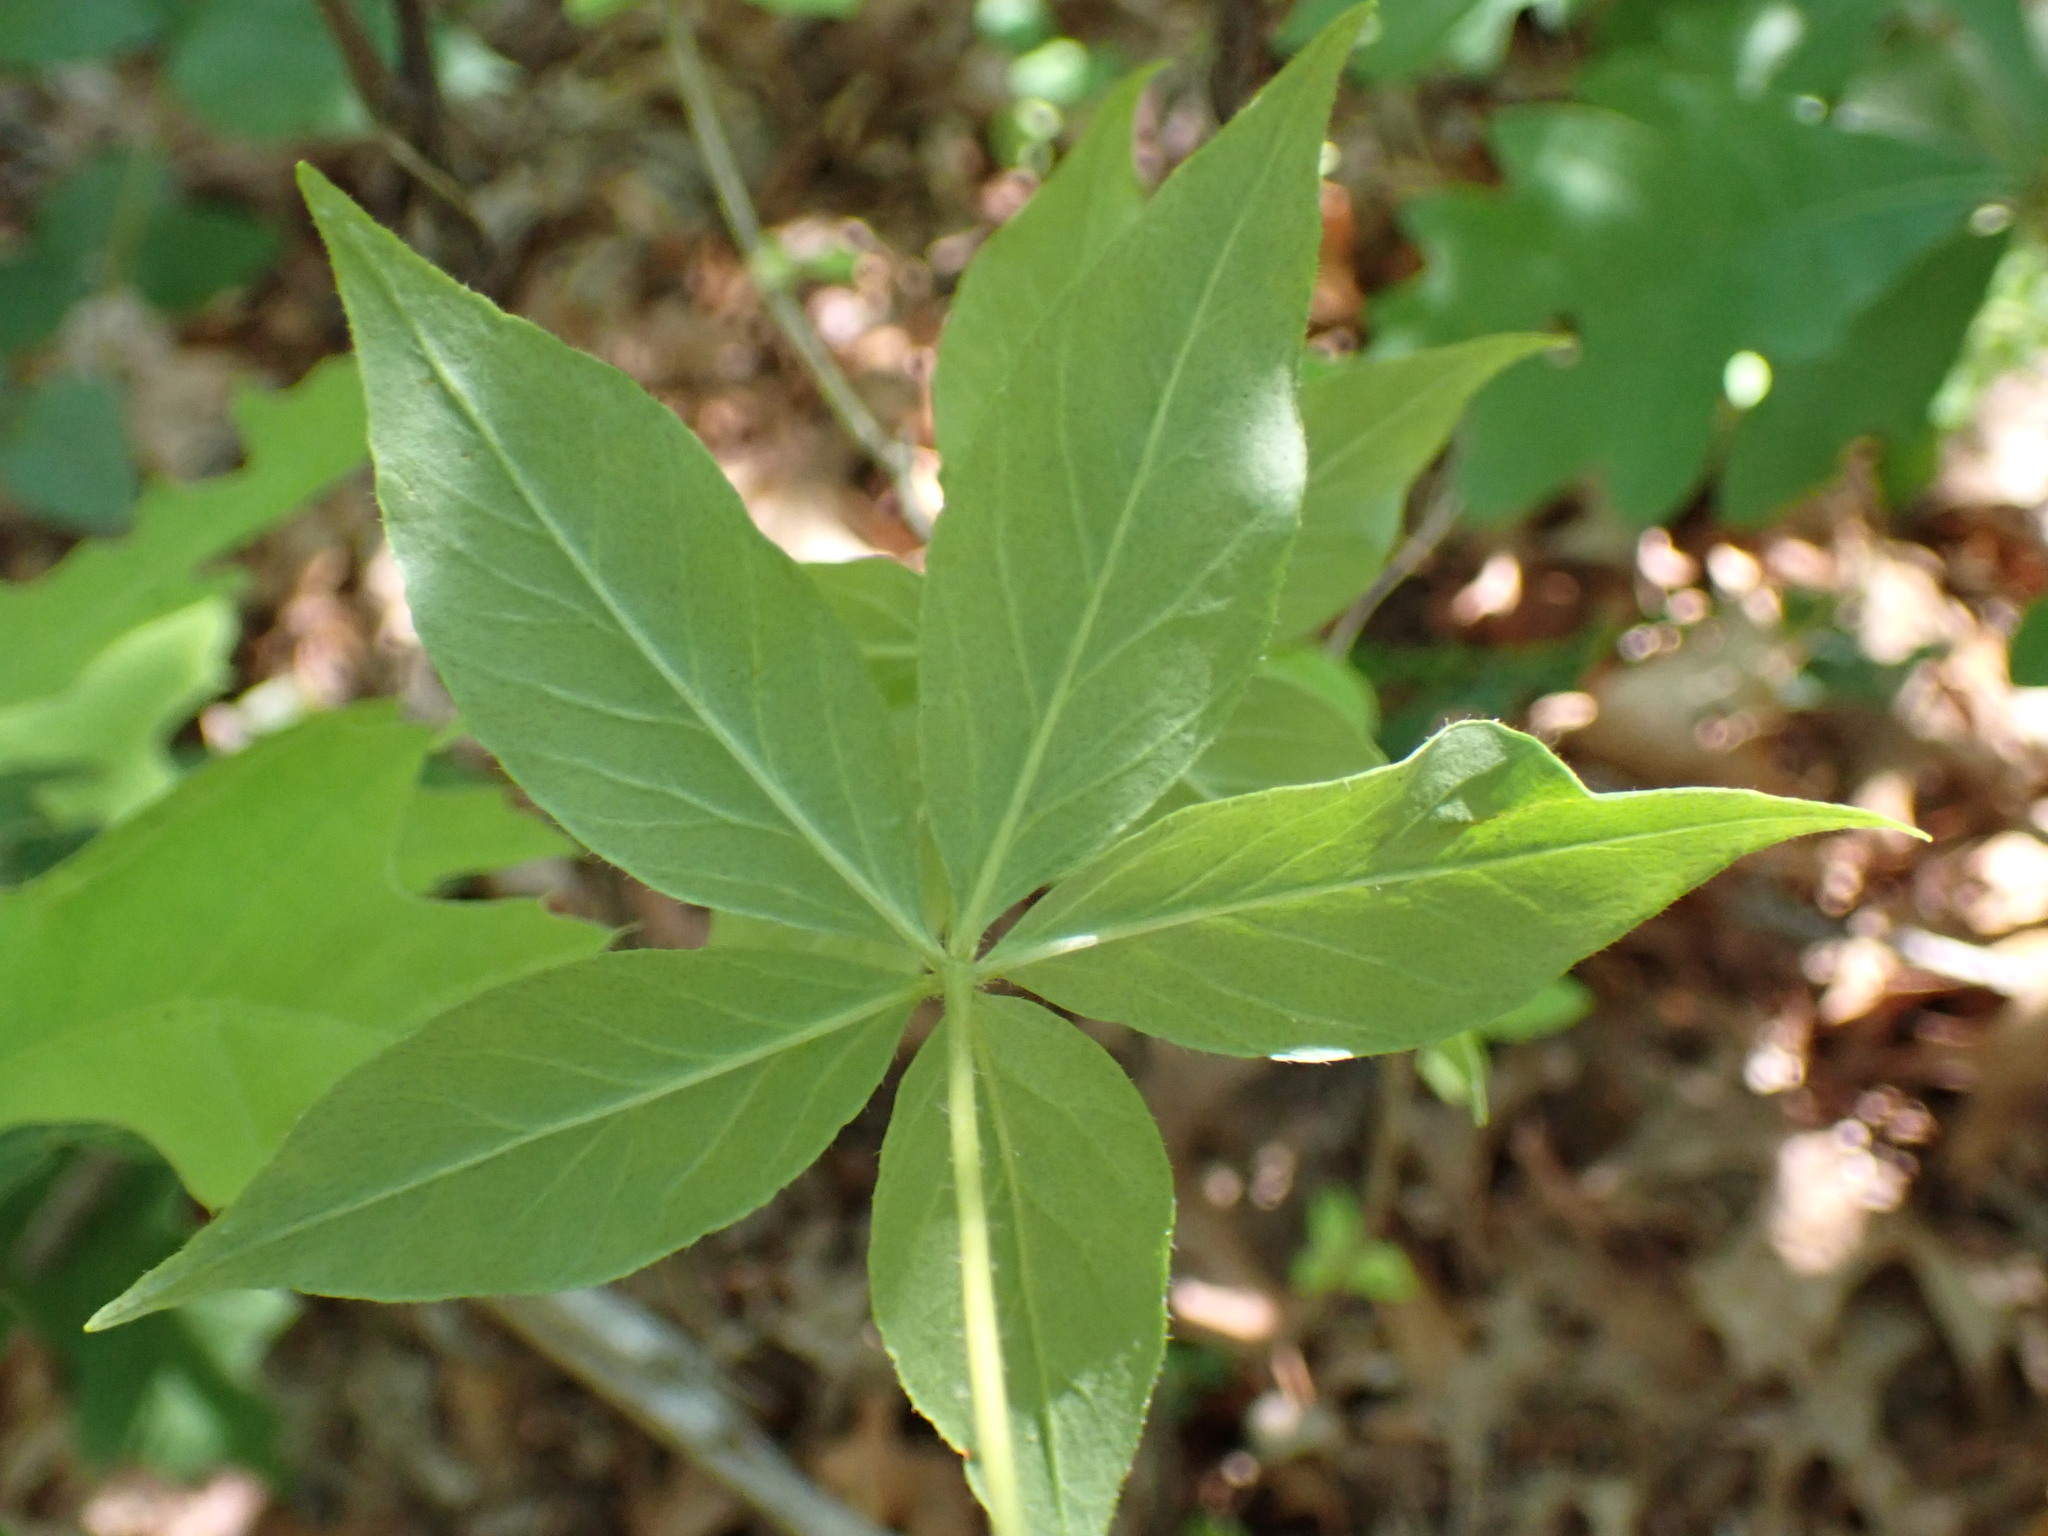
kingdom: Plantae
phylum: Tracheophyta
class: Magnoliopsida
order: Ericales
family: Primulaceae
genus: Lysimachia
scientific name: Lysimachia quadrifolia
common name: Whorled loosestrife
